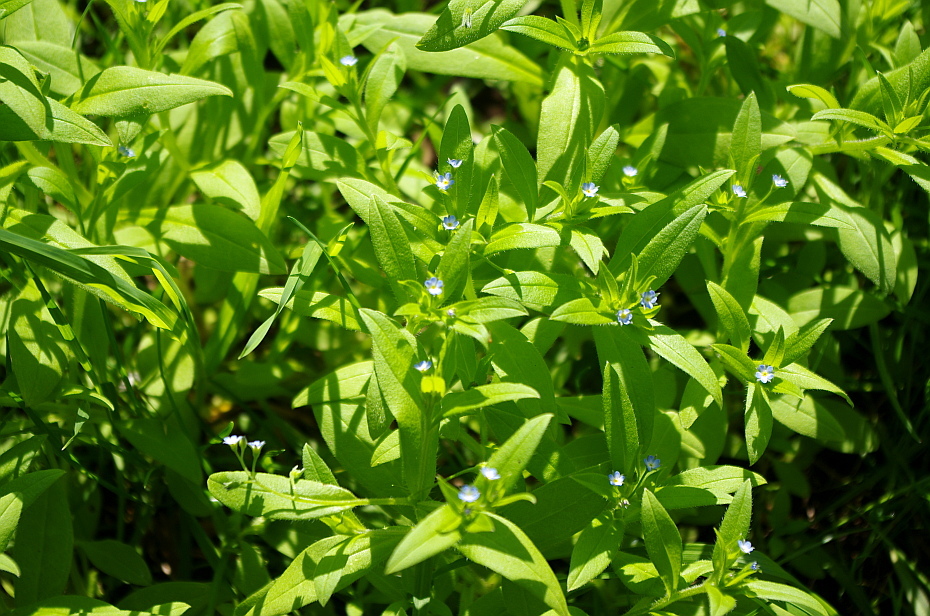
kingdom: Plantae
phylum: Tracheophyta
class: Magnoliopsida
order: Boraginales
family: Boraginaceae
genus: Myosotis
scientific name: Myosotis sparsiflora
